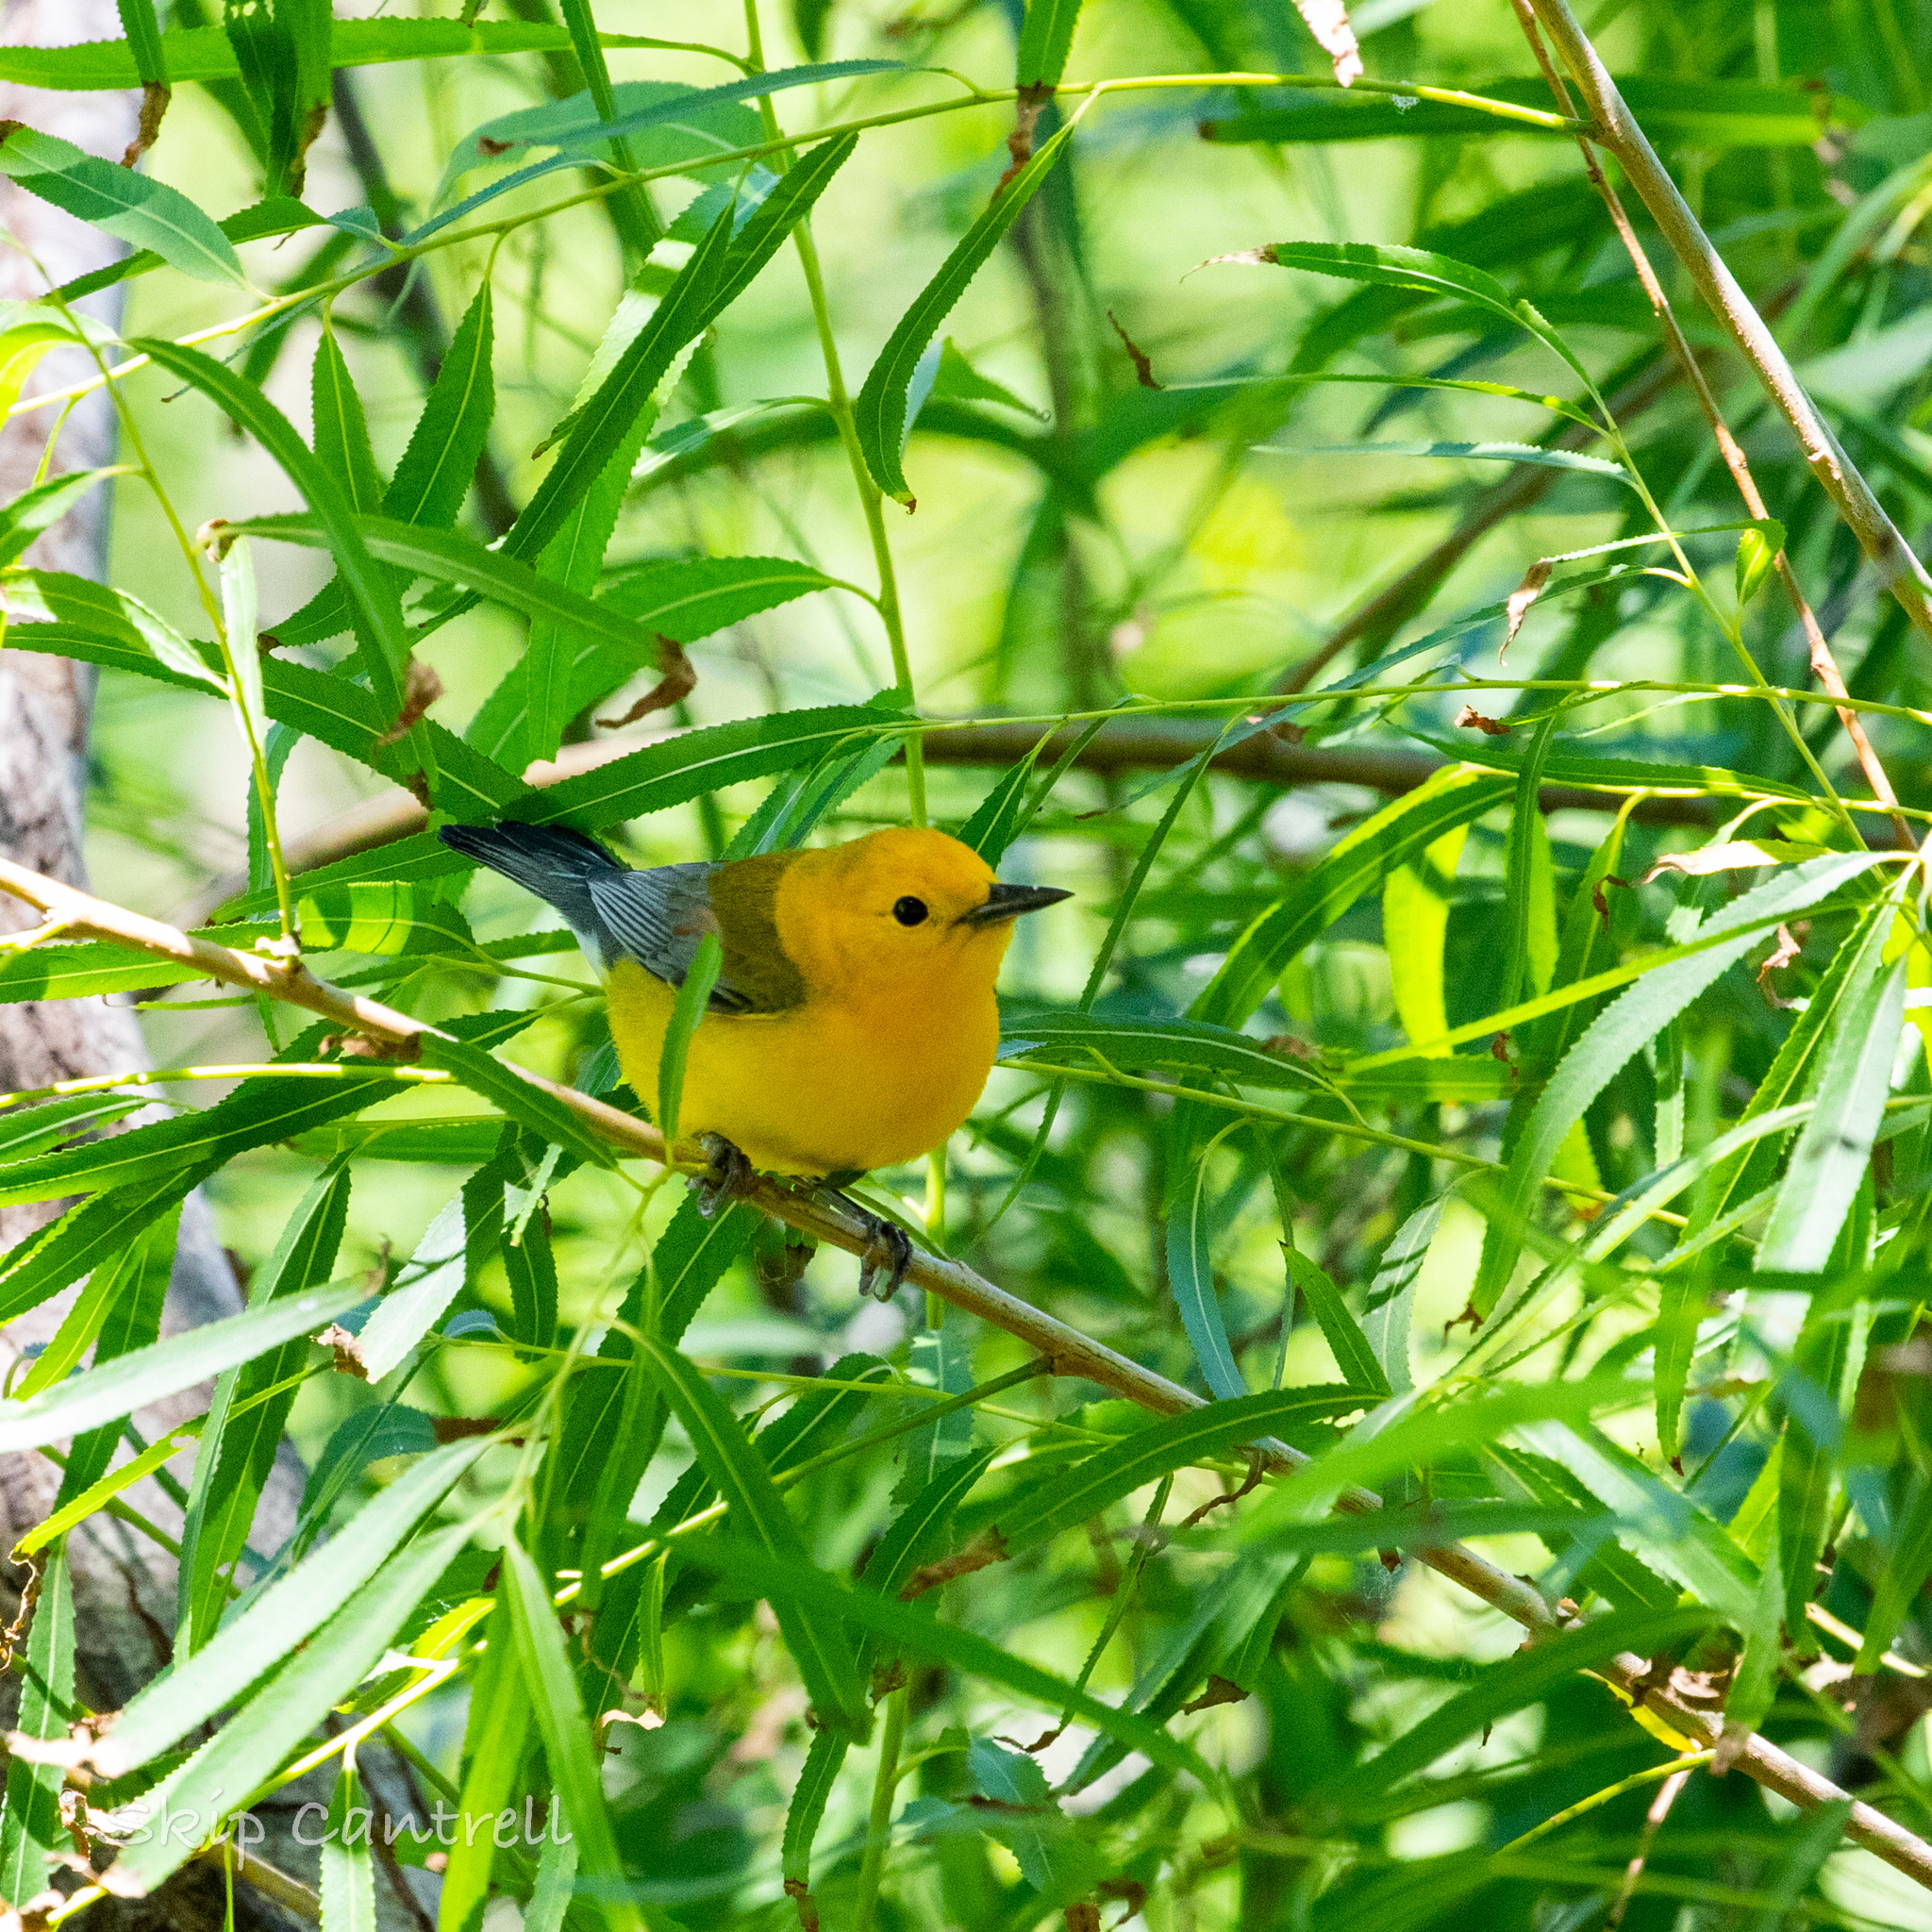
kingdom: Animalia
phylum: Chordata
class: Aves
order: Passeriformes
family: Parulidae
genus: Protonotaria
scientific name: Protonotaria citrea
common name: Prothonotary warbler
